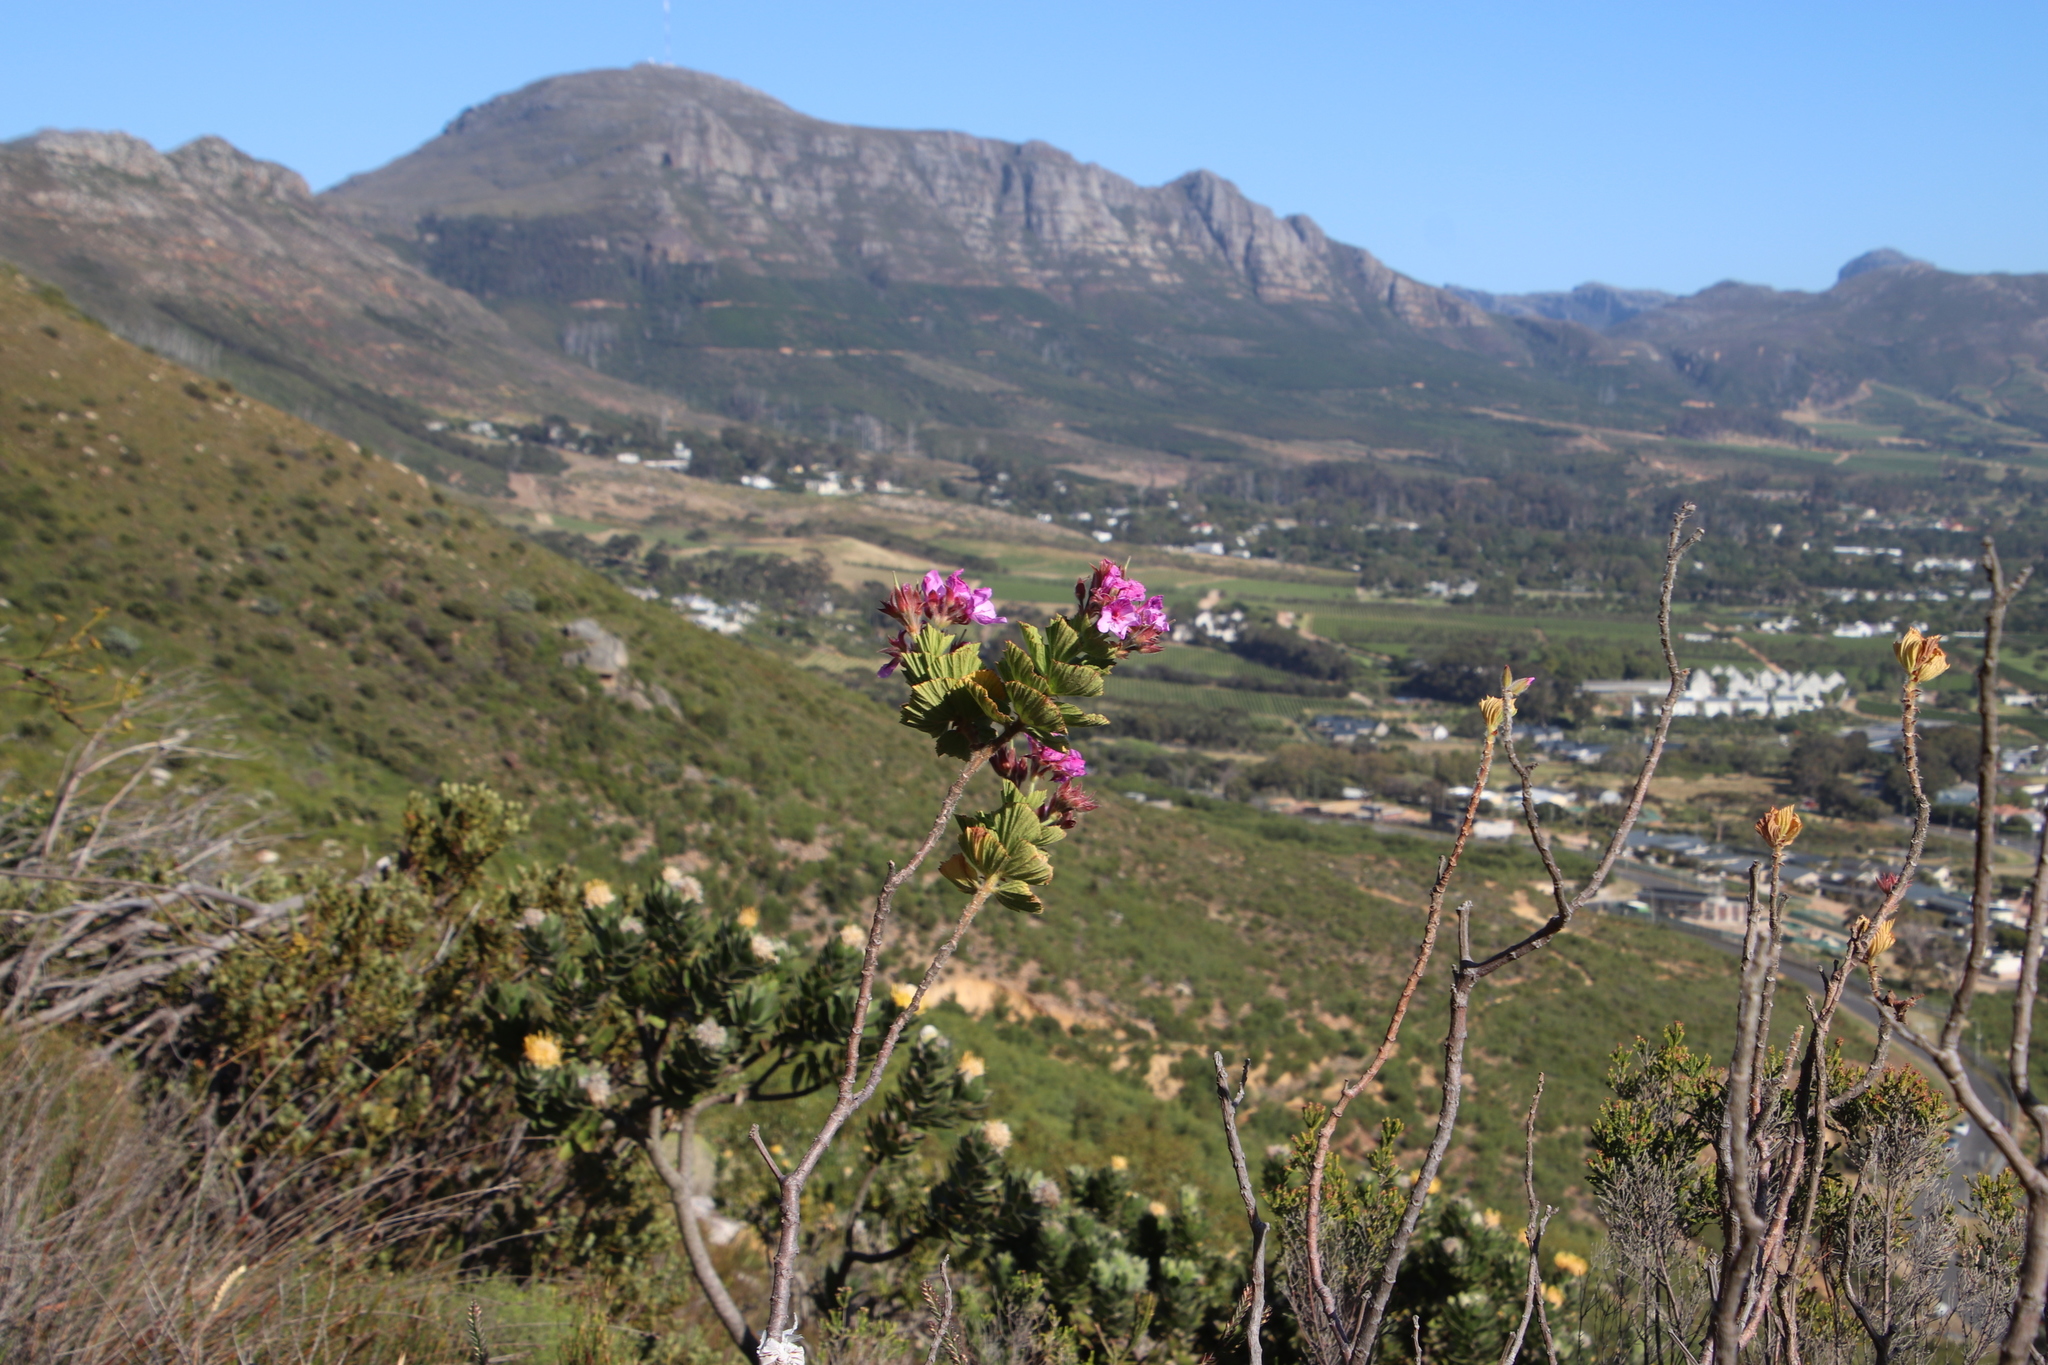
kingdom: Plantae
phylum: Tracheophyta
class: Magnoliopsida
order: Geraniales
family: Geraniaceae
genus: Pelargonium
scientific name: Pelargonium cucullatum
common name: Tree pelargonium
